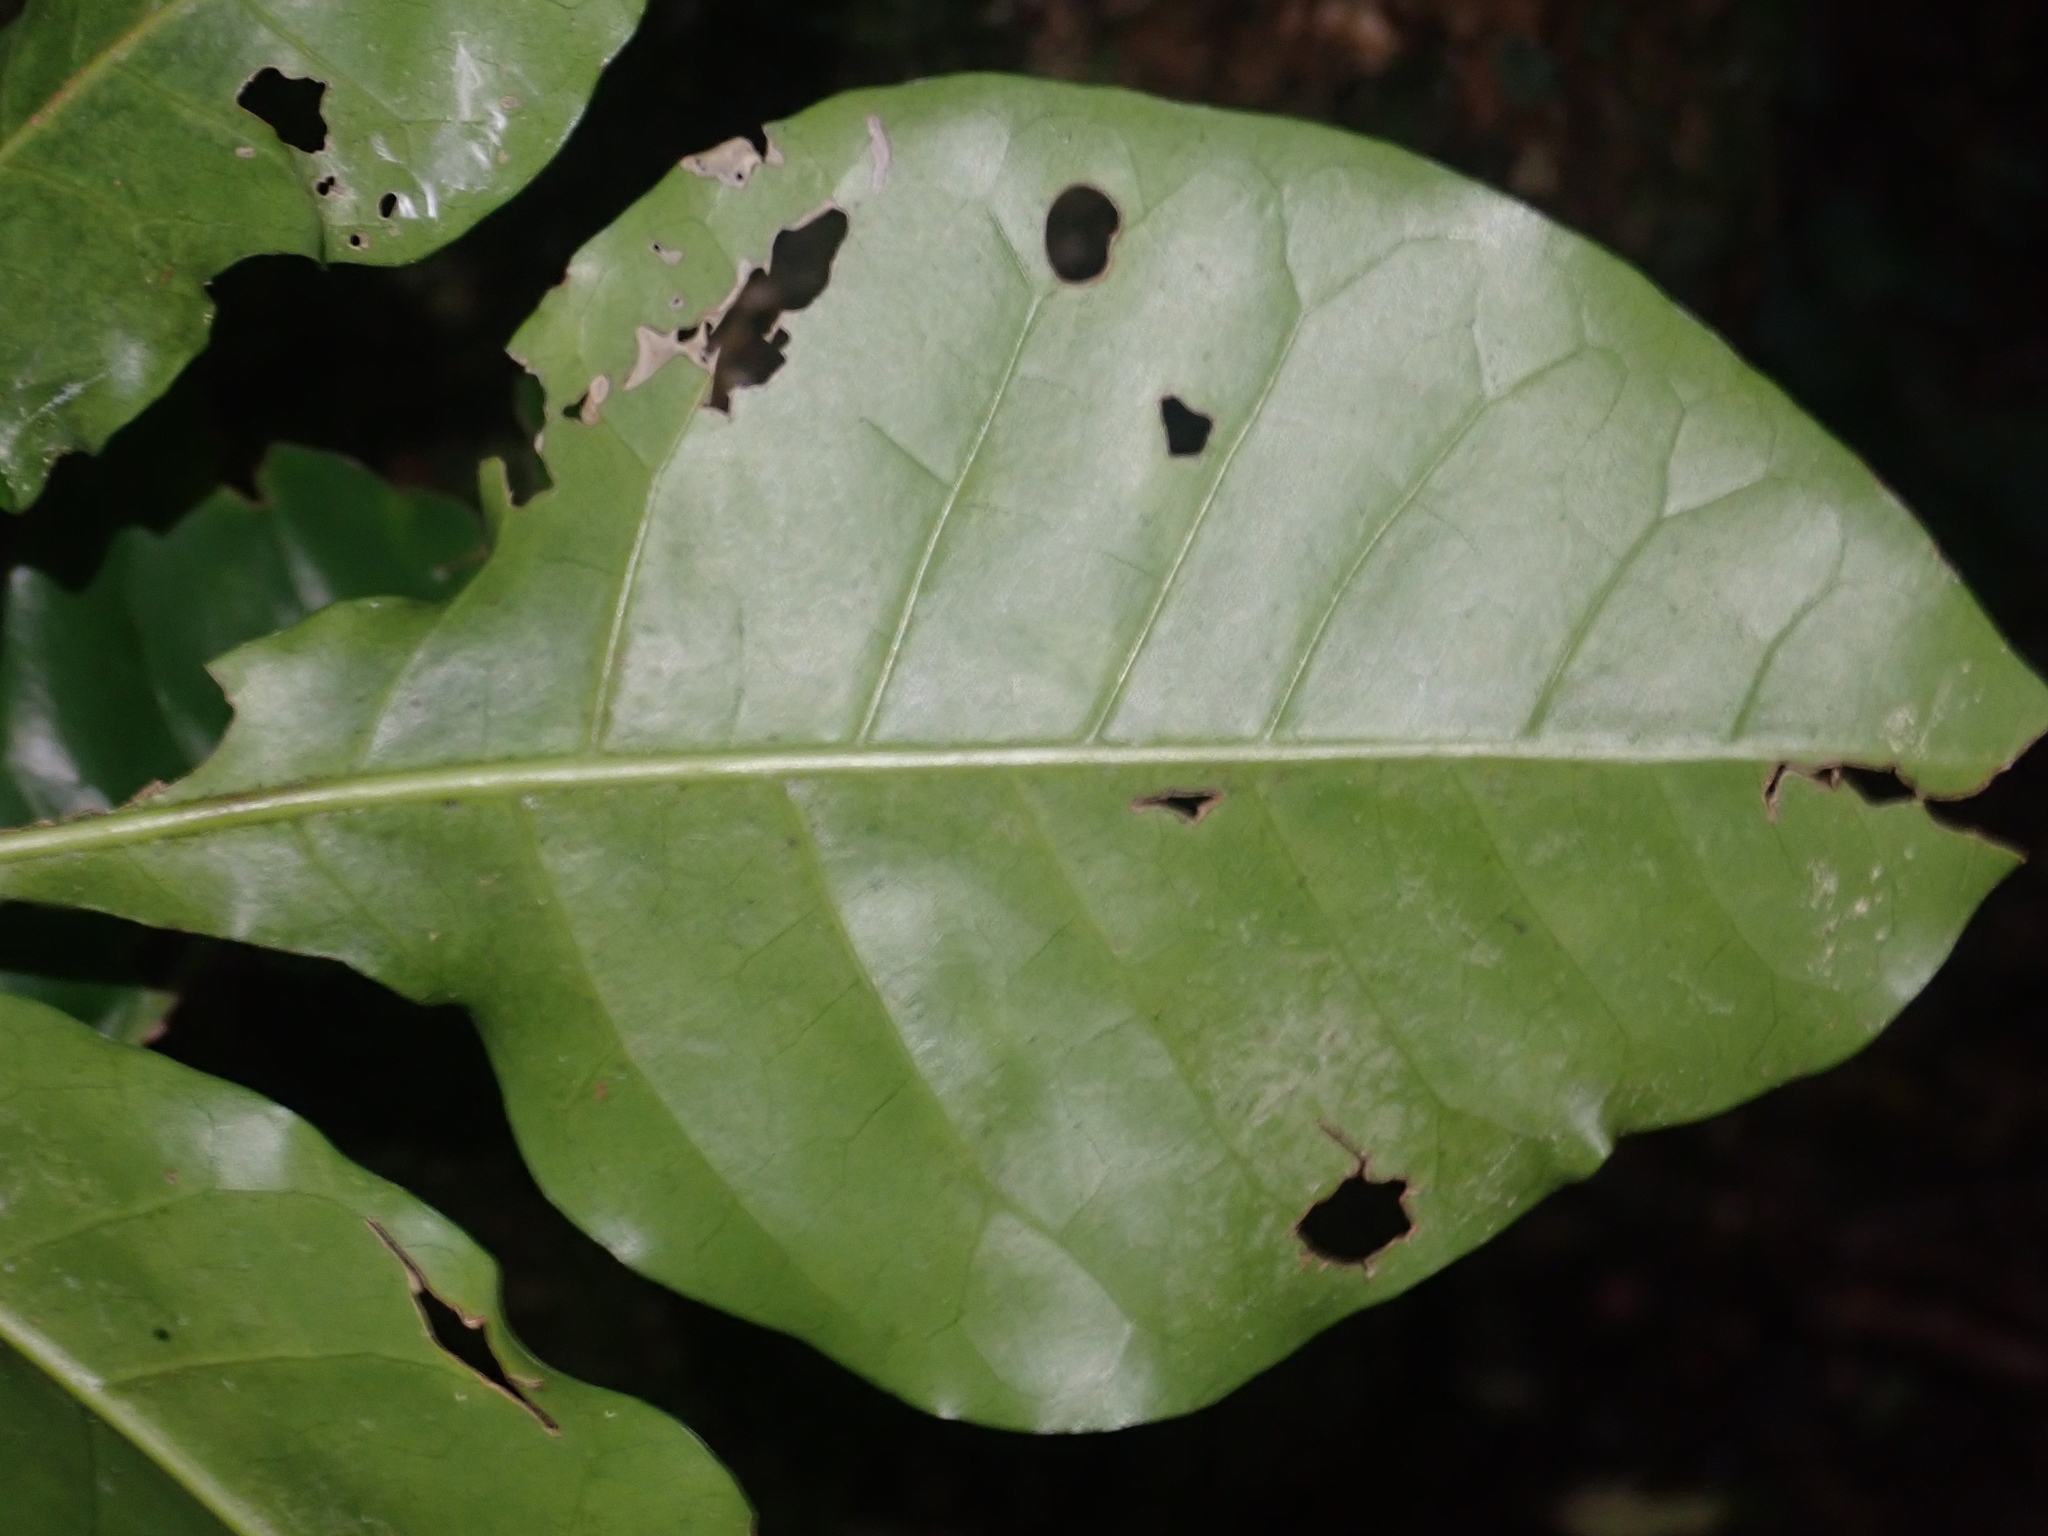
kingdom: Plantae
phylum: Tracheophyta
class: Magnoliopsida
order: Sapindales
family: Meliaceae
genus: Didymocheton
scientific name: Didymocheton spectabilis
